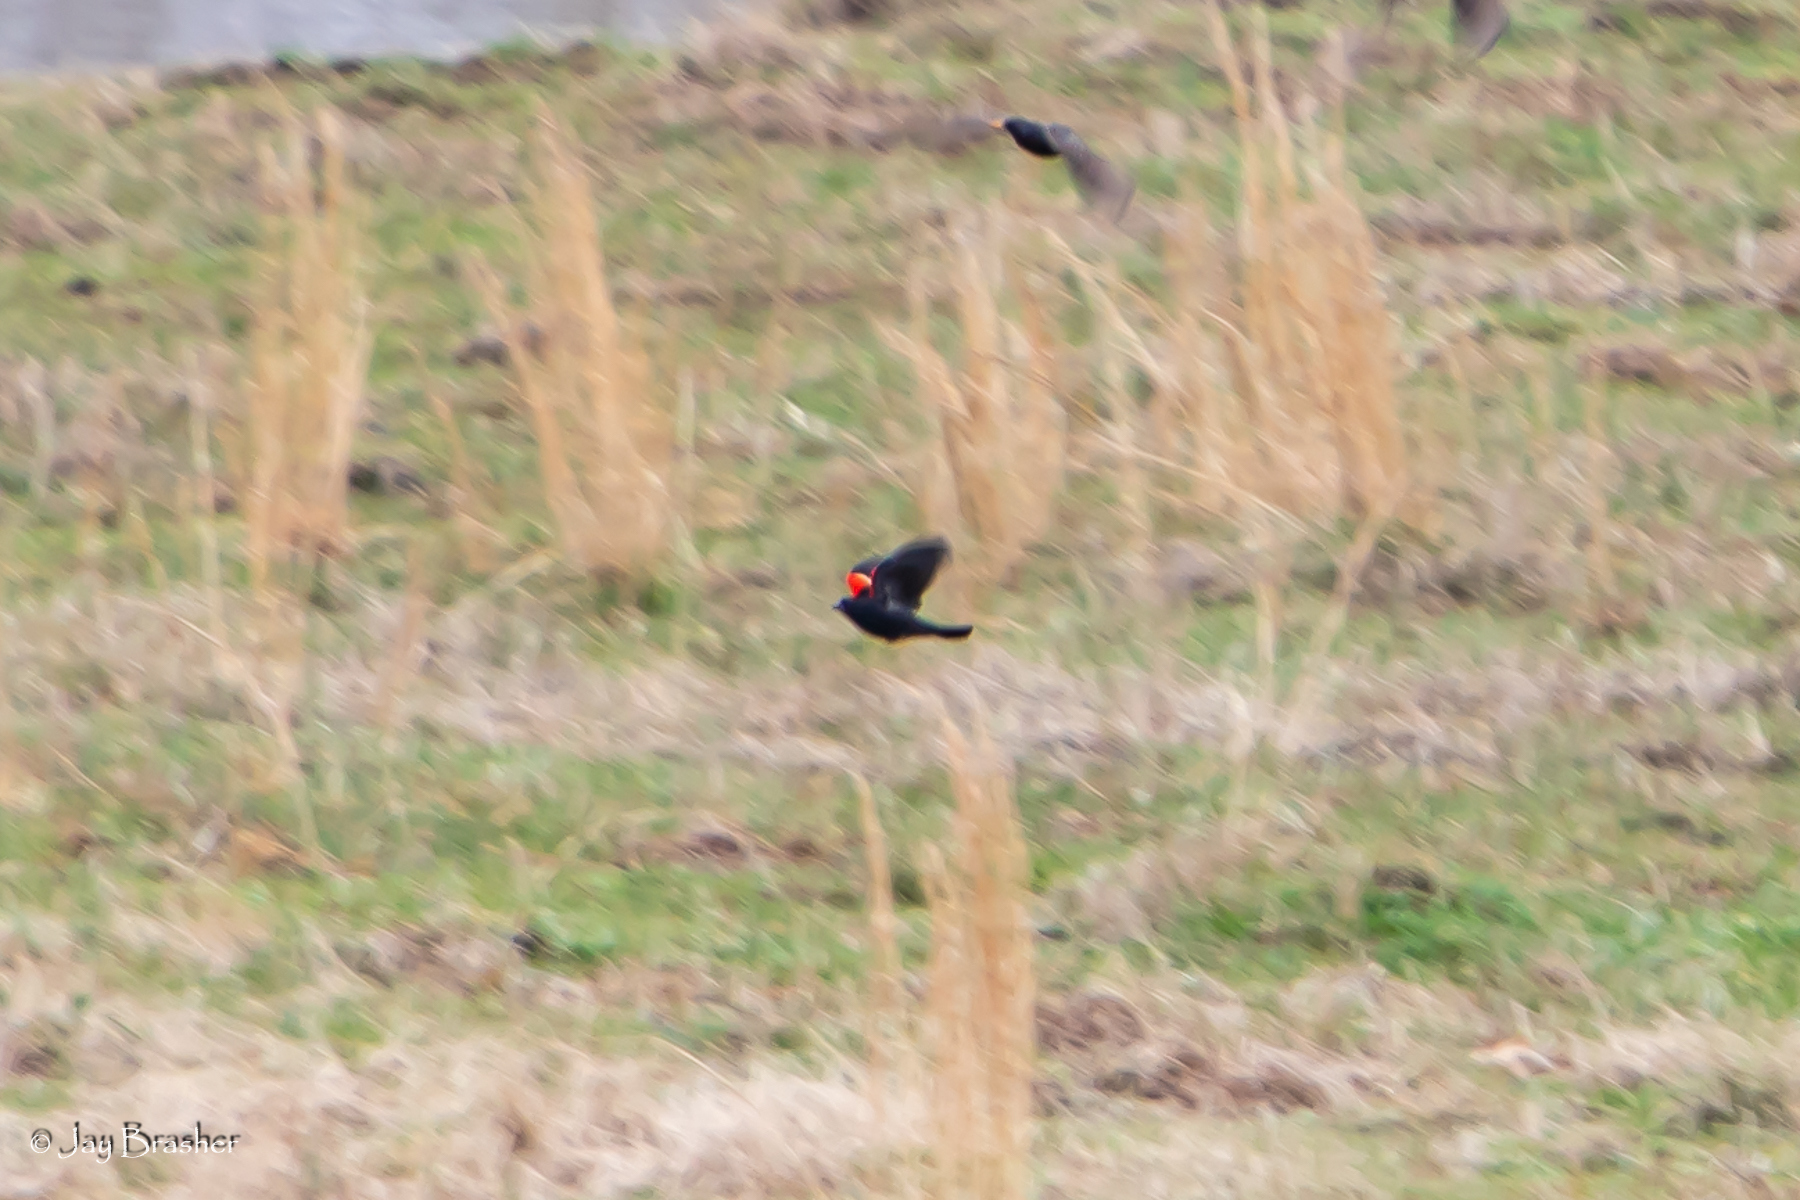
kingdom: Animalia
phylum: Chordata
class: Aves
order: Passeriformes
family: Icteridae
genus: Agelaius
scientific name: Agelaius phoeniceus
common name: Red-winged blackbird
